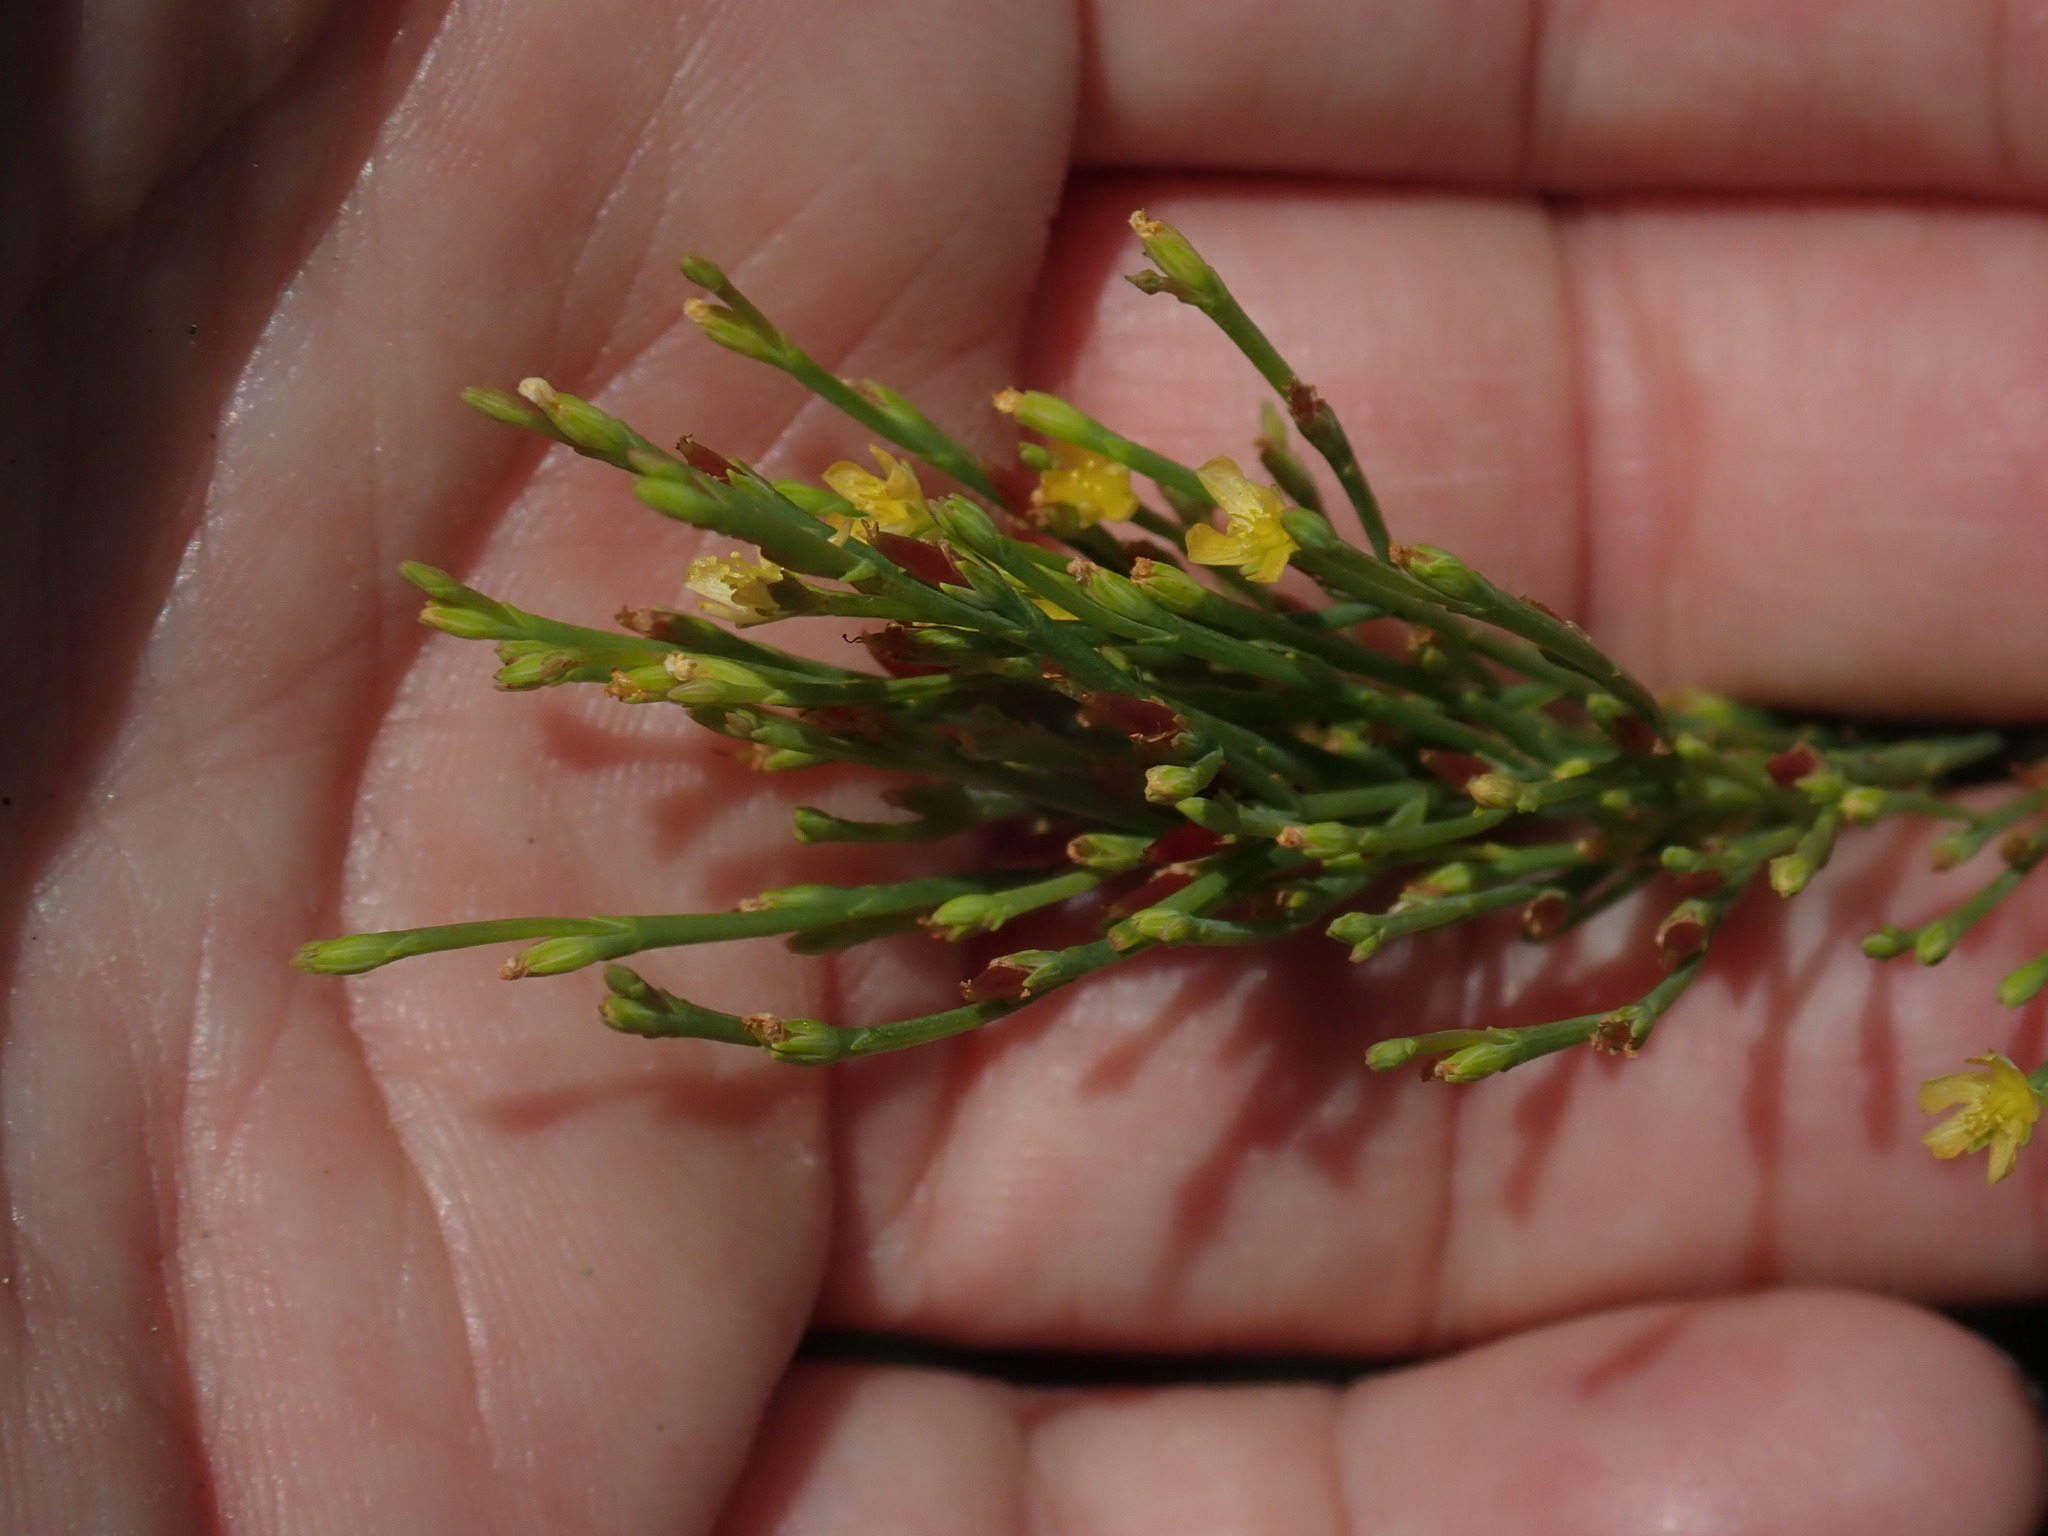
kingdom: Plantae
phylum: Tracheophyta
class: Magnoliopsida
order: Malpighiales
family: Hypericaceae
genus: Hypericum
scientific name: Hypericum gentianoides
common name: Gentian-leaved st. john's-wort
